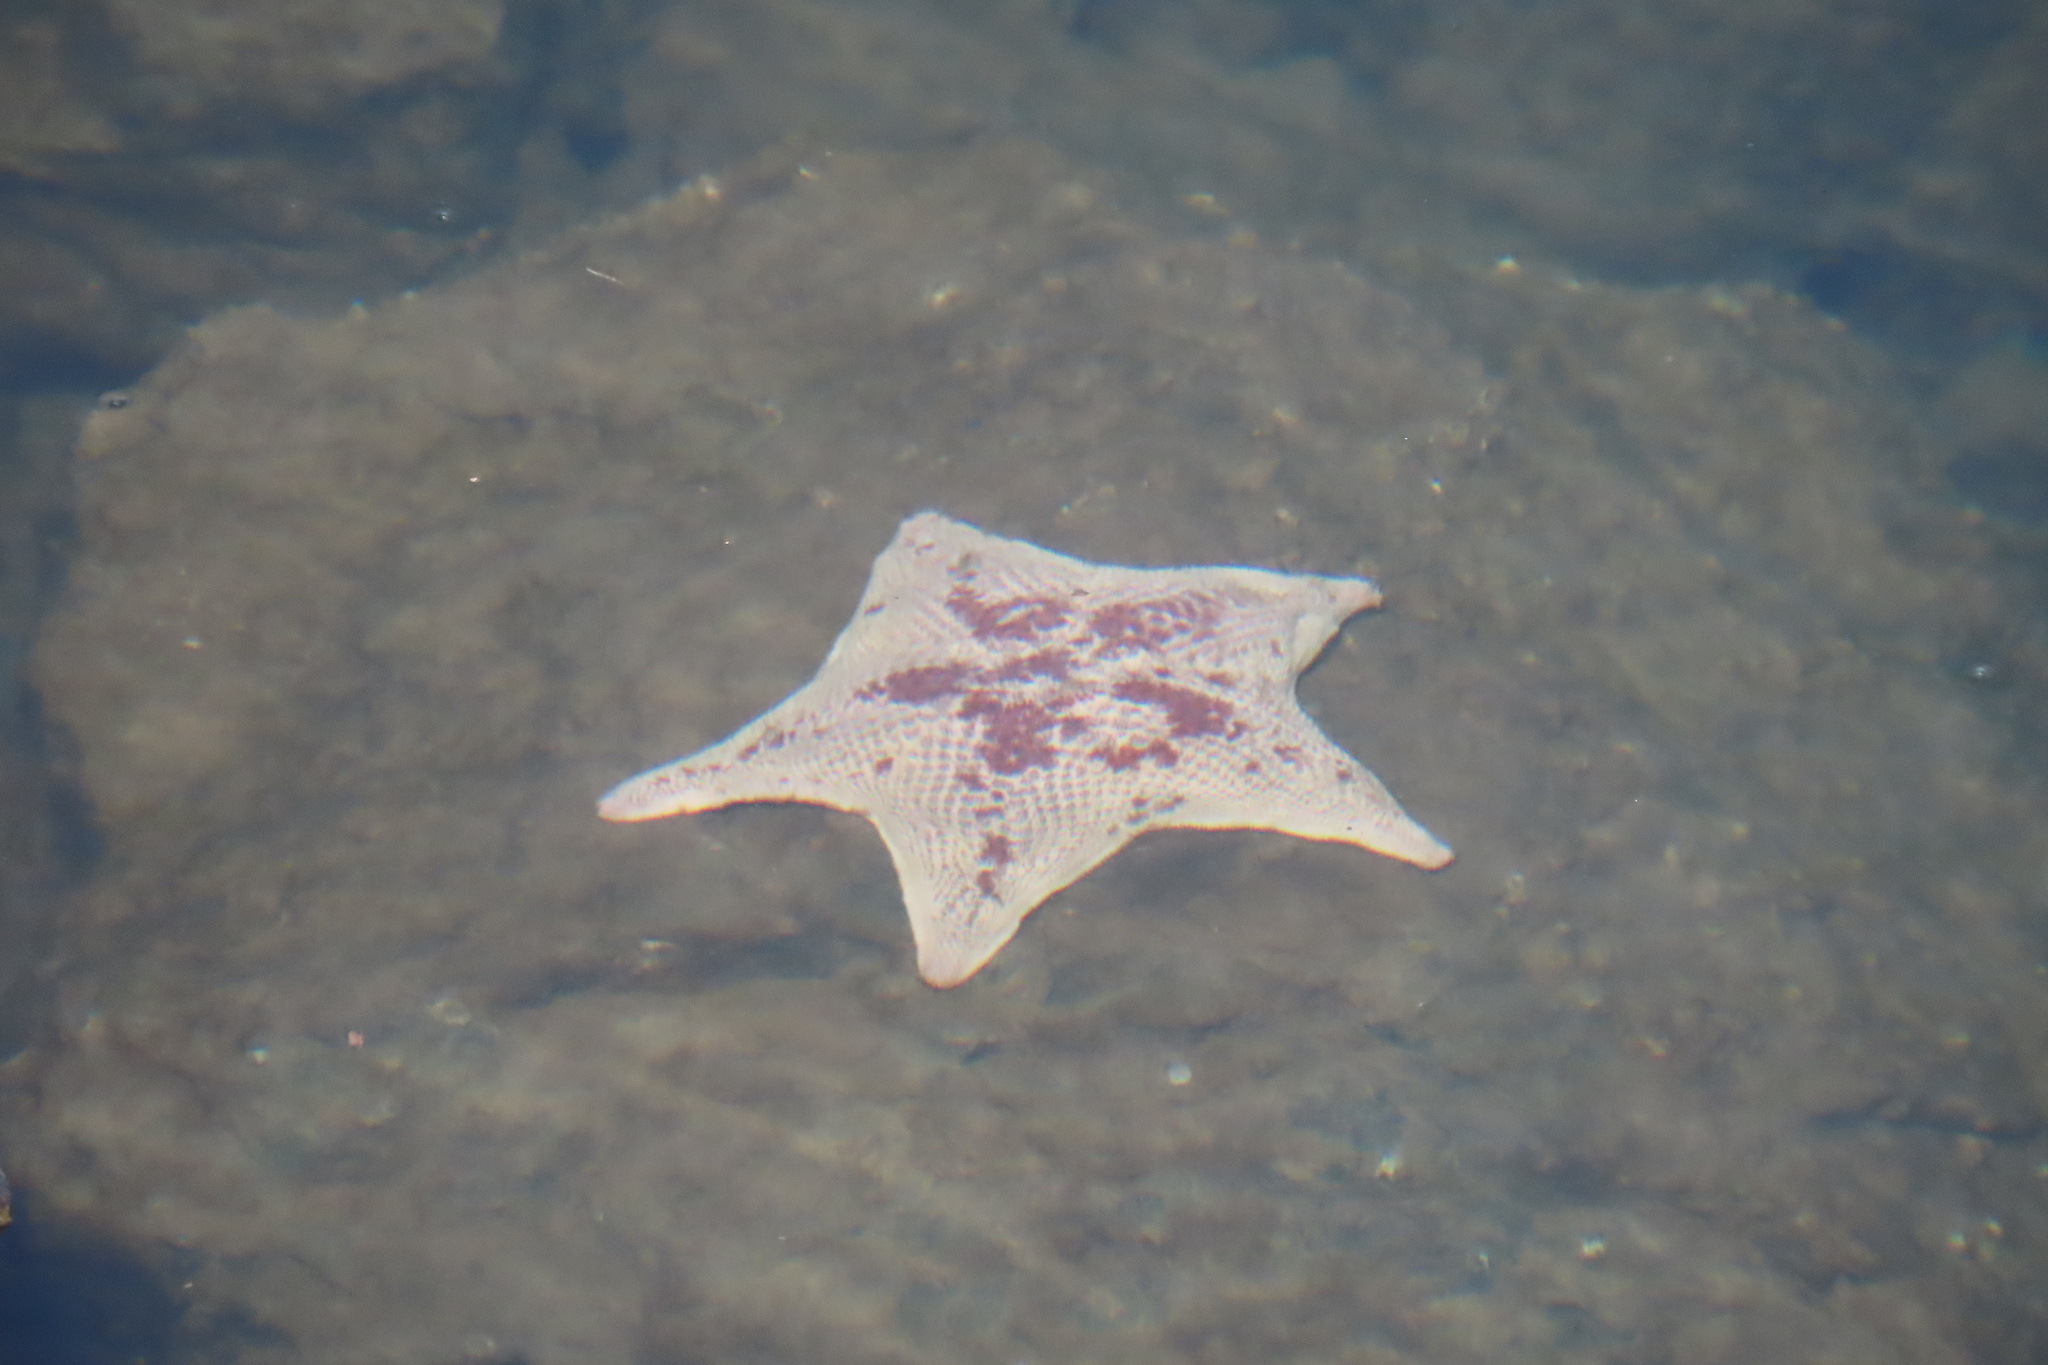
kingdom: Animalia
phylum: Echinodermata
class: Asteroidea
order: Valvatida
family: Asterinidae
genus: Patiria
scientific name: Patiria miniata
